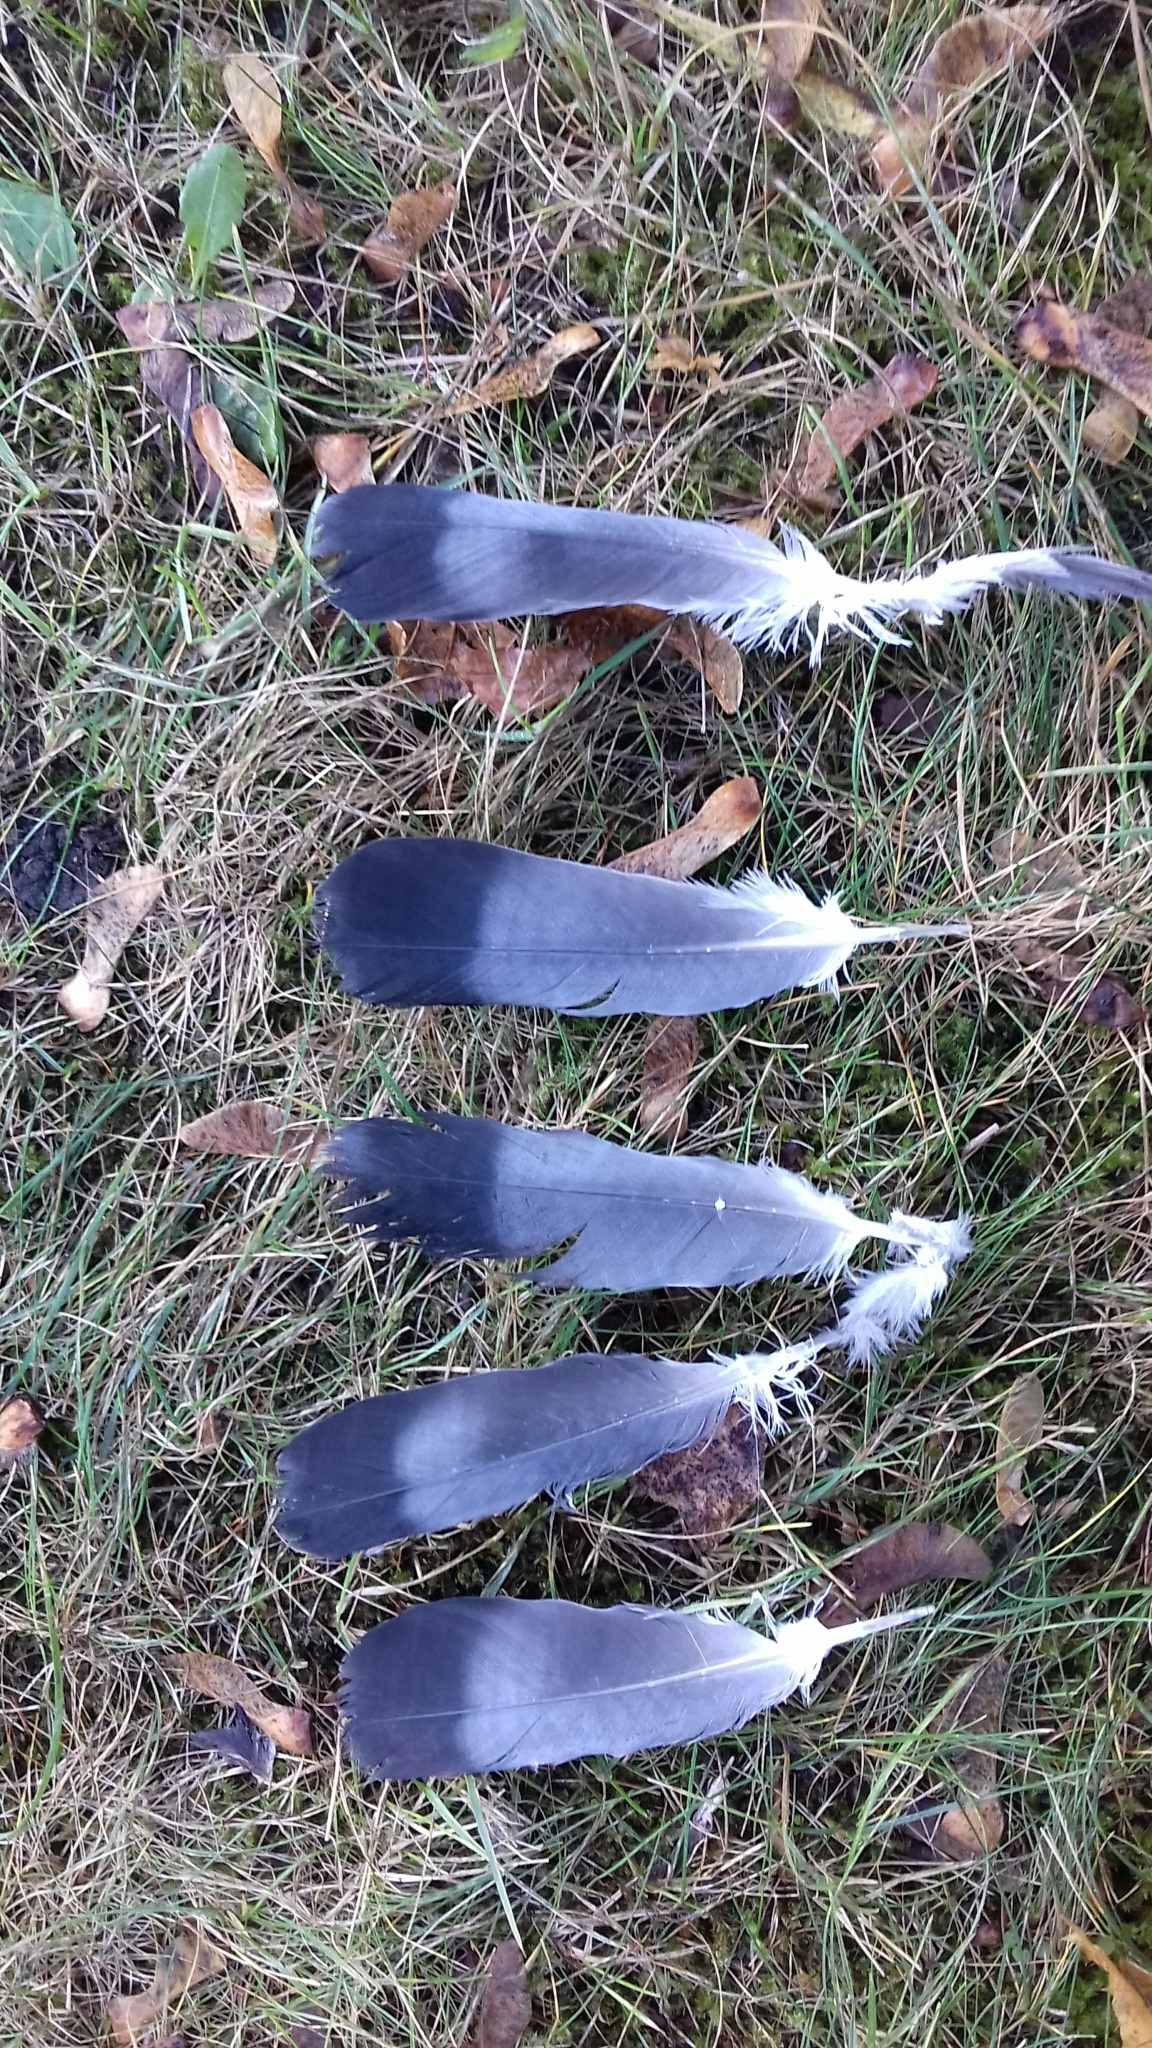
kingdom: Animalia
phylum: Chordata
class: Aves
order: Columbiformes
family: Columbidae
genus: Columba
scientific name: Columba livia
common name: Rock pigeon
